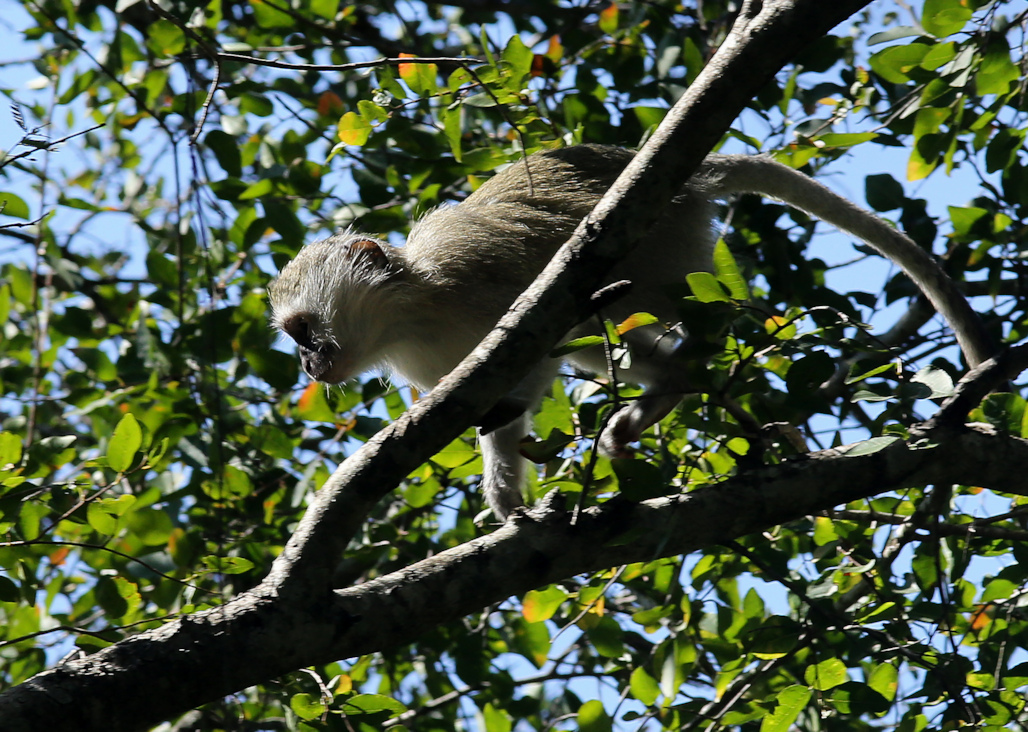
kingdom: Animalia
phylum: Chordata
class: Mammalia
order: Primates
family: Cercopithecidae
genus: Chlorocebus
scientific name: Chlorocebus pygerythrus
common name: Vervet monkey
